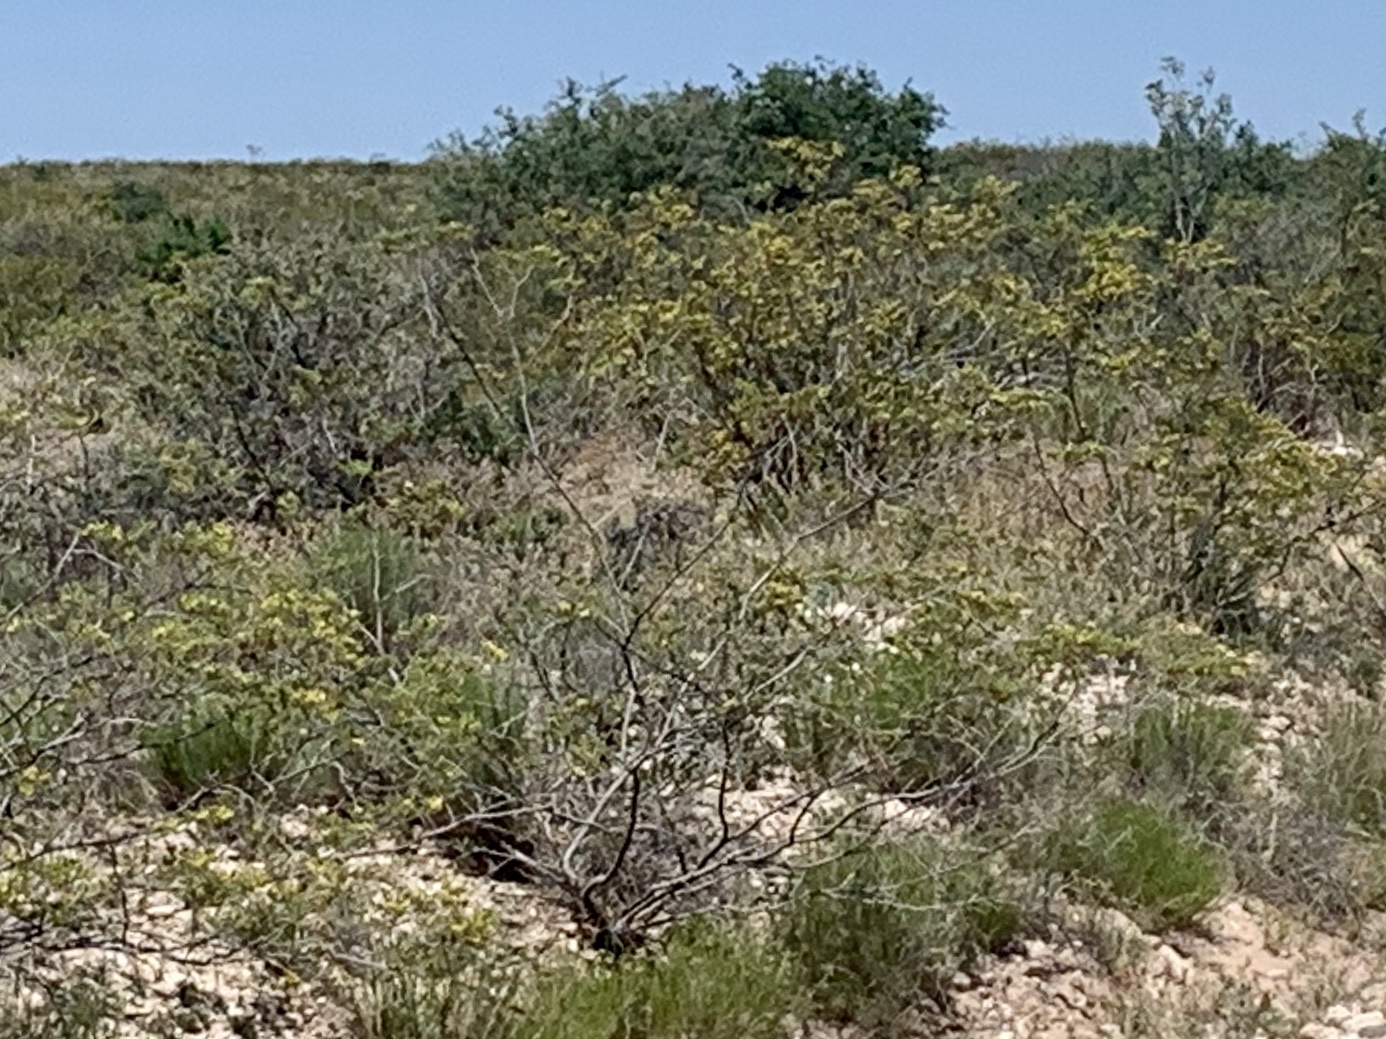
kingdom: Plantae
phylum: Tracheophyta
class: Magnoliopsida
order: Zygophyllales
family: Zygophyllaceae
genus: Larrea
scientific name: Larrea tridentata
